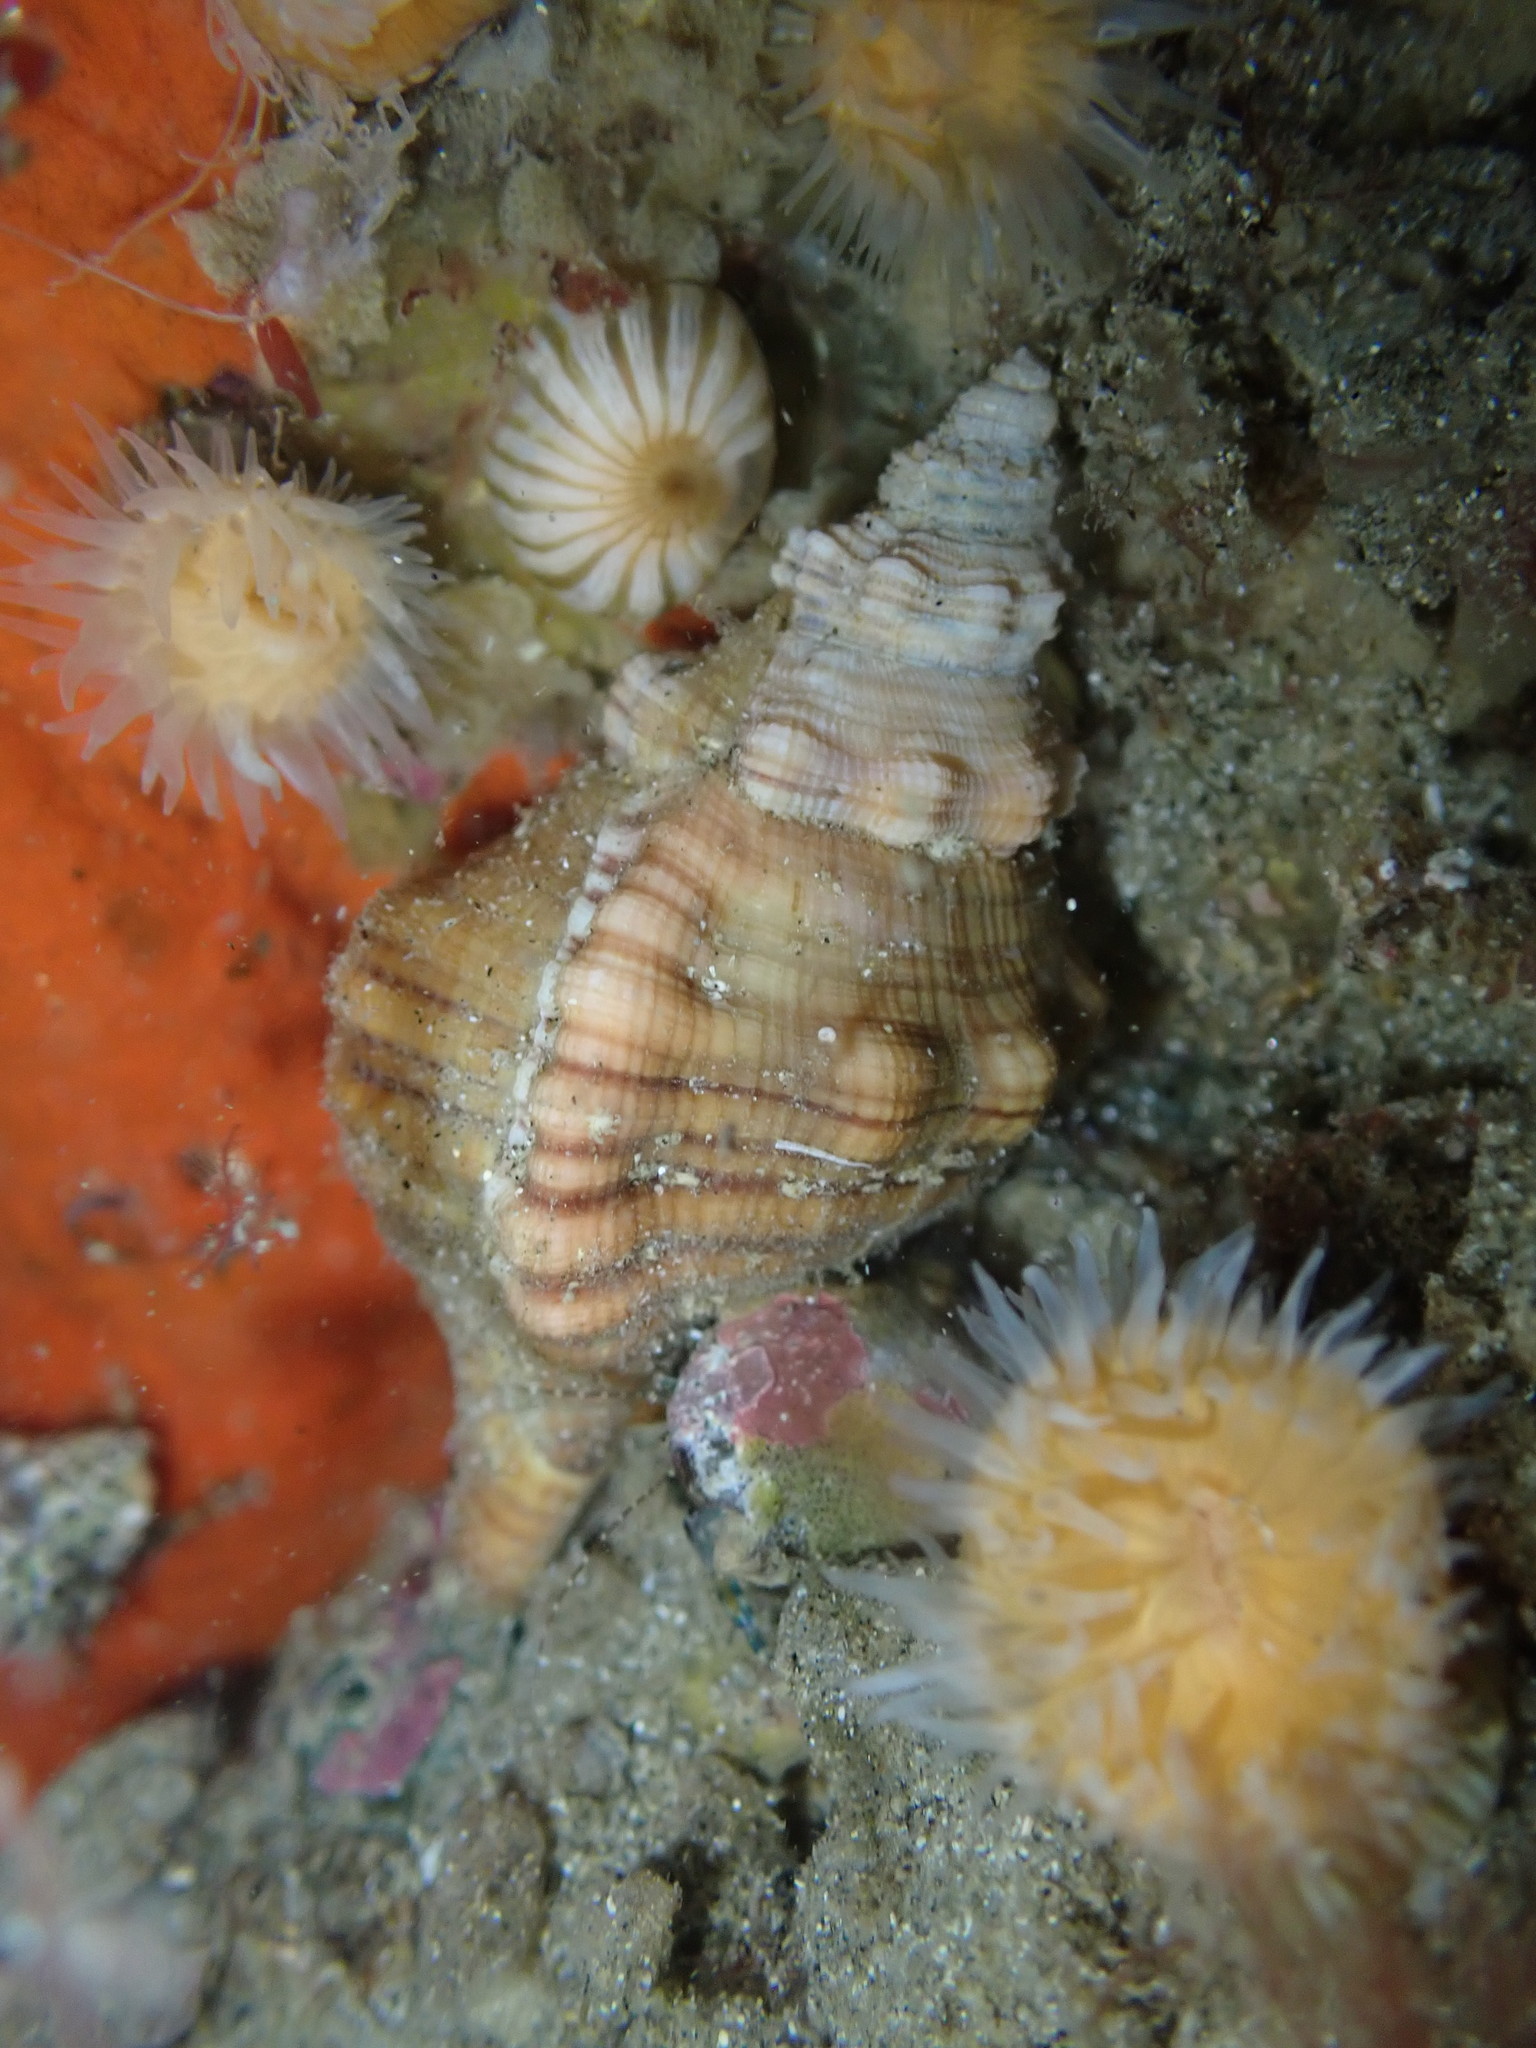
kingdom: Animalia
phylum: Mollusca
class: Gastropoda
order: Littorinimorpha
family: Cymatiidae
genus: Cabestana
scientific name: Cabestana spengleri
